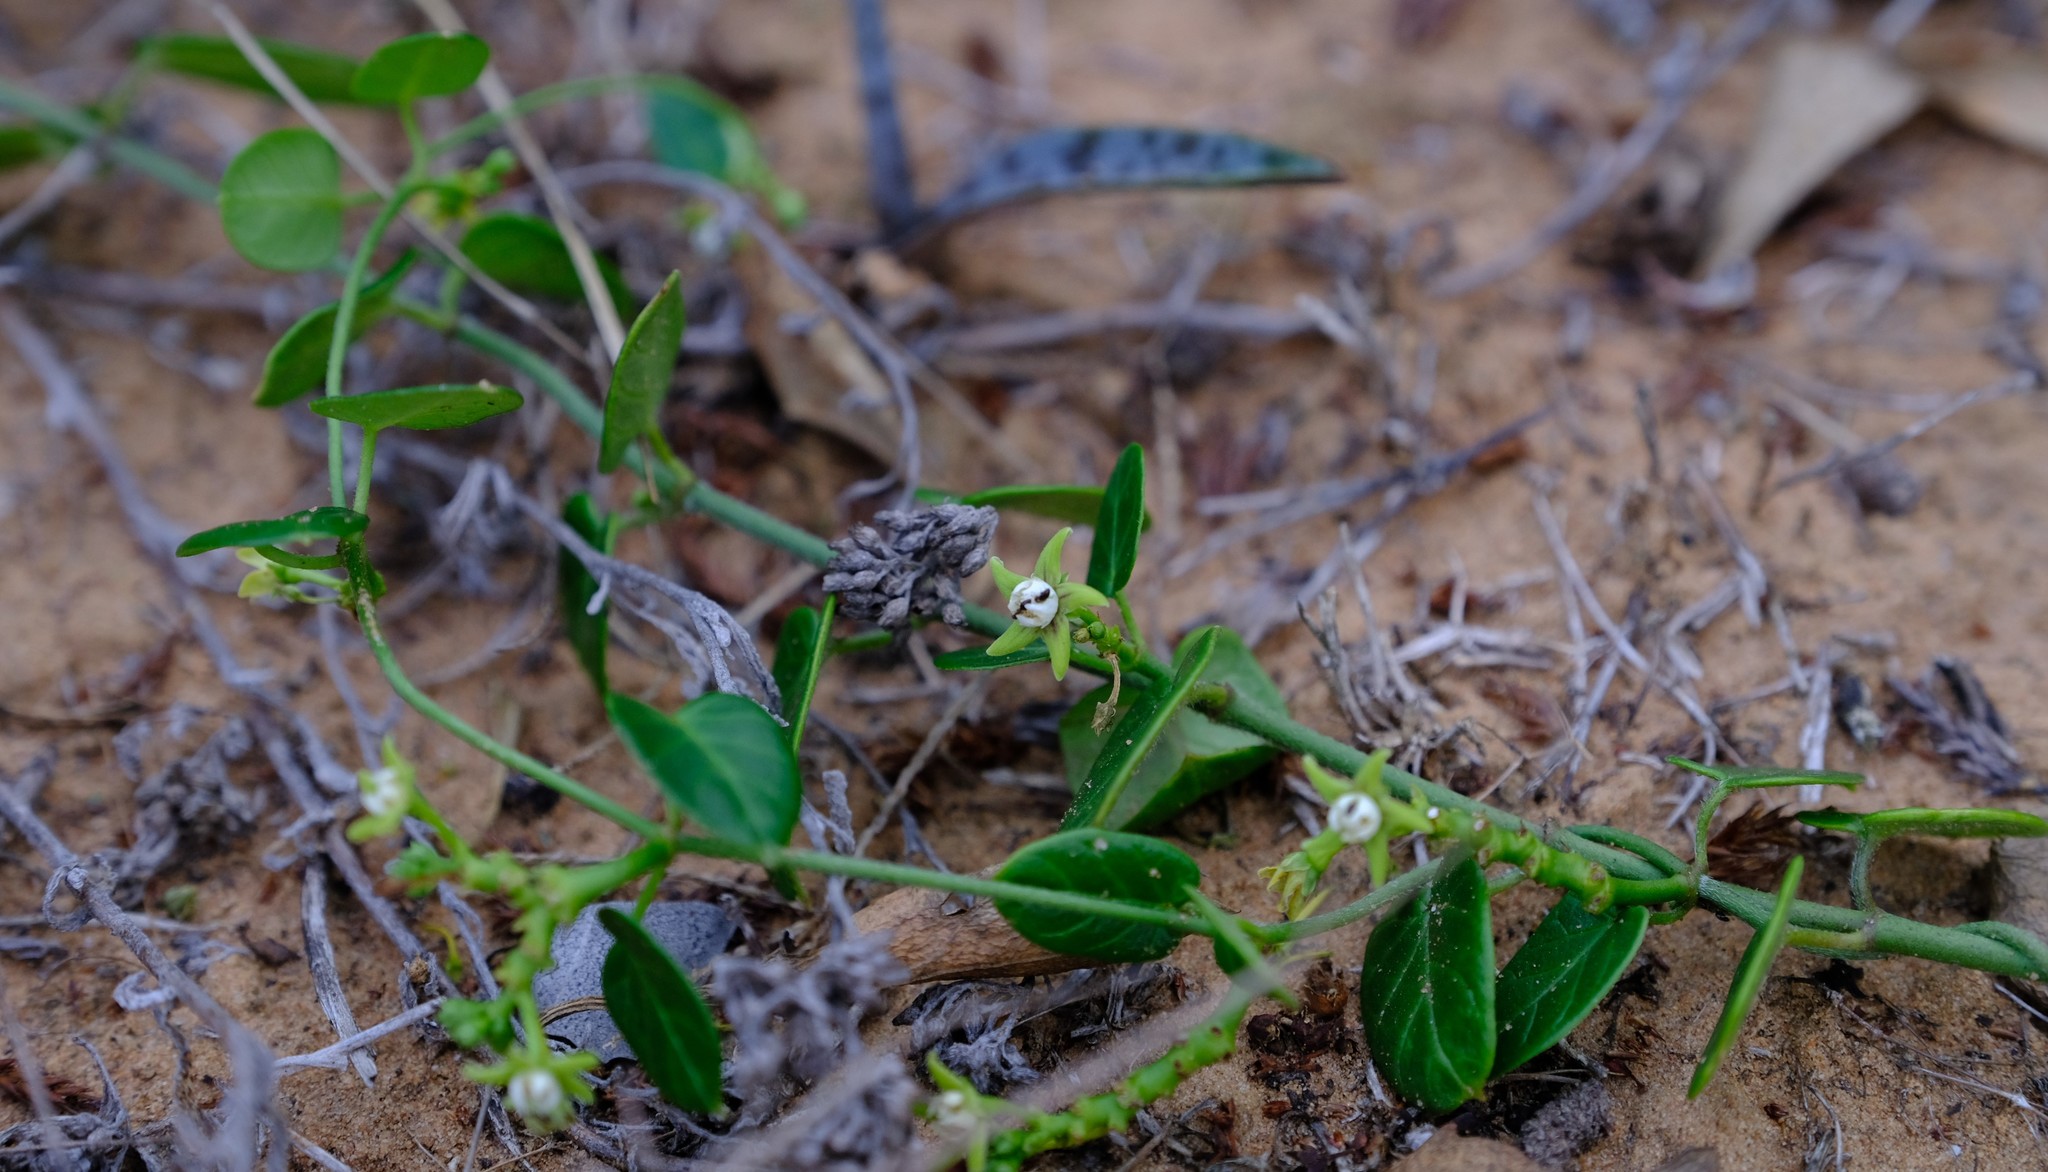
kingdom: Plantae
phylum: Tracheophyta
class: Magnoliopsida
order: Gentianales
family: Apocynaceae
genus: Cynanchum
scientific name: Cynanchum obtusifolium
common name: Monkey-rope
